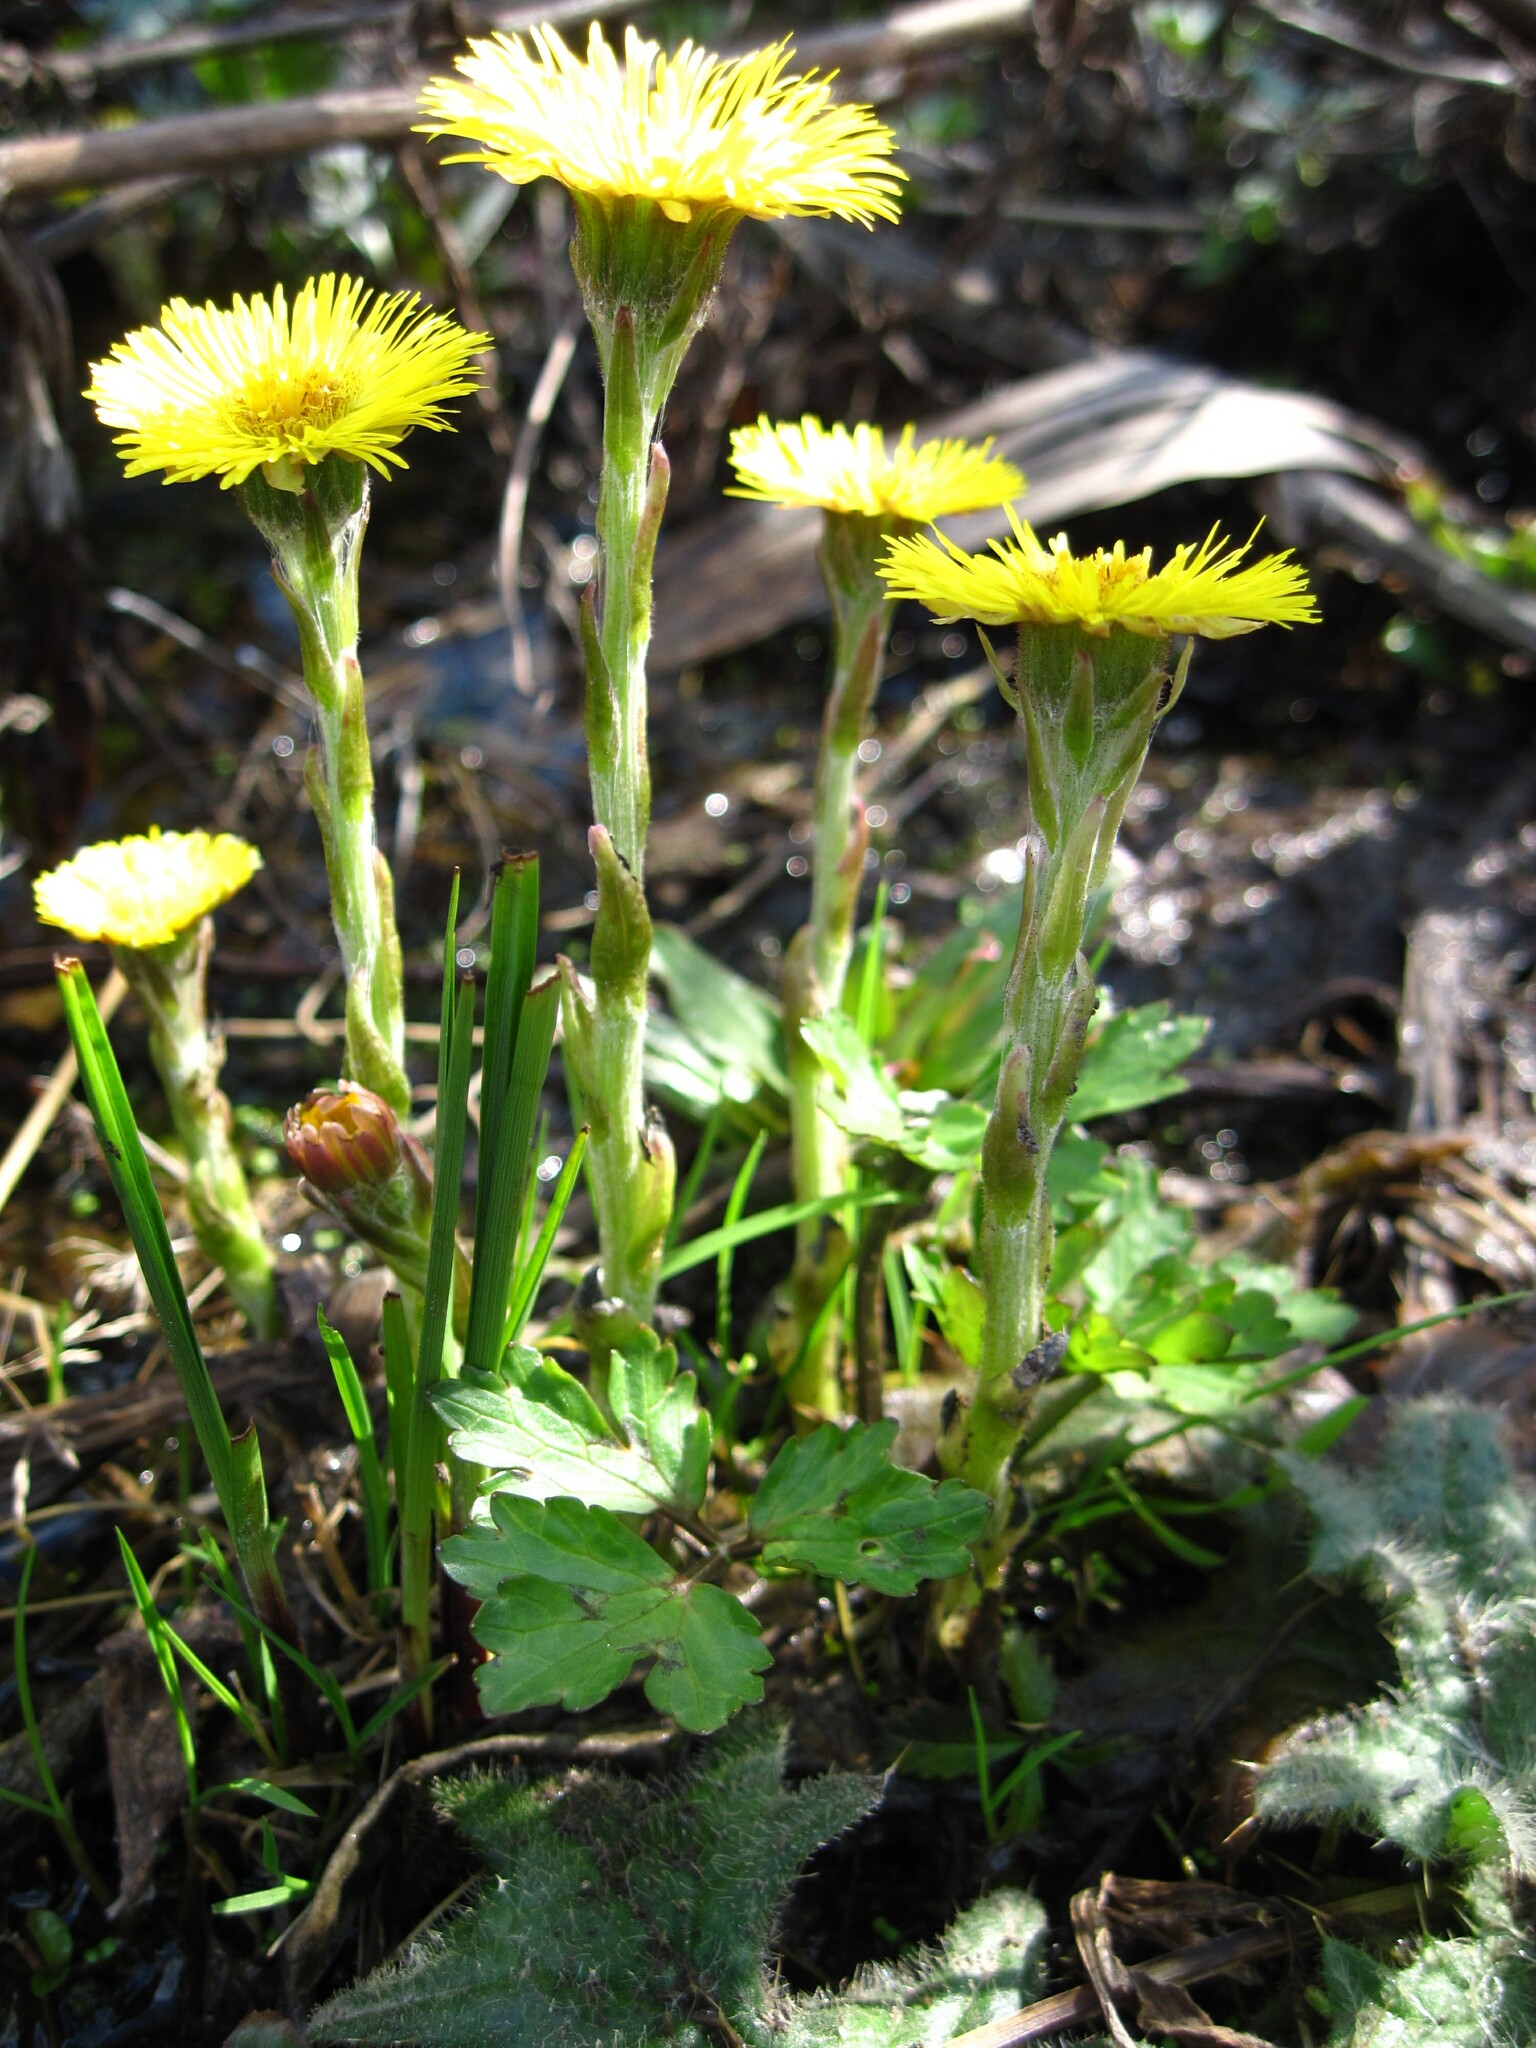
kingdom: Plantae
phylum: Tracheophyta
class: Magnoliopsida
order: Asterales
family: Asteraceae
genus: Tussilago
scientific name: Tussilago farfara
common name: Coltsfoot
